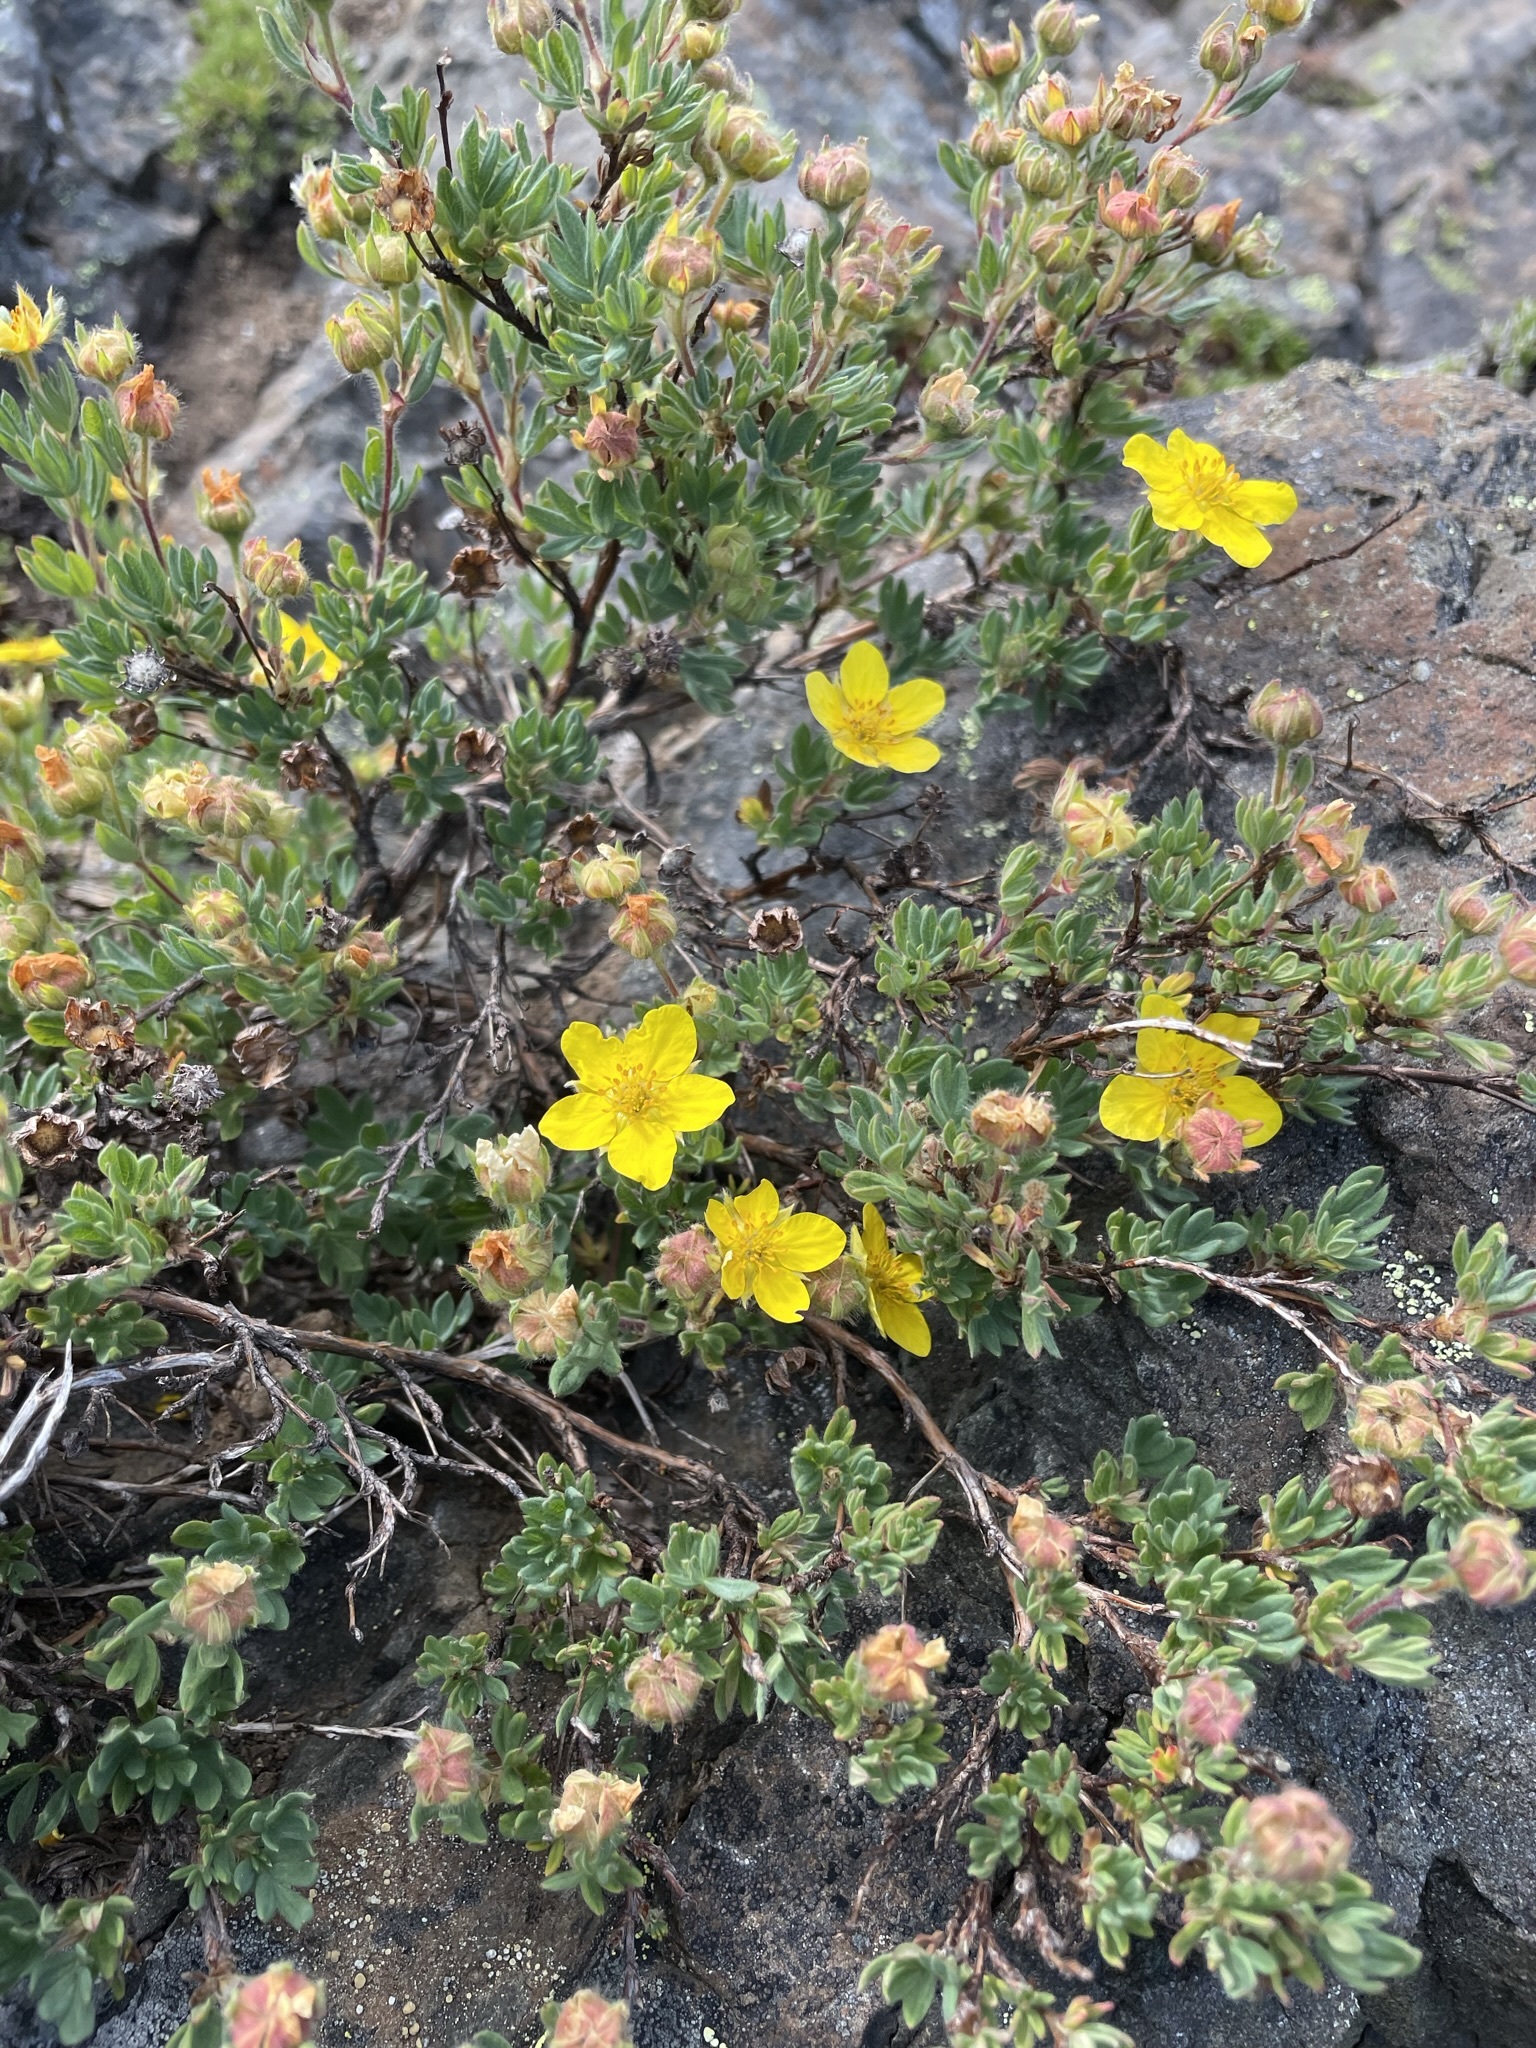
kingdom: Plantae
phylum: Tracheophyta
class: Magnoliopsida
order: Rosales
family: Rosaceae
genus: Dasiphora
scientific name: Dasiphora fruticosa
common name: Shrubby cinquefoil
